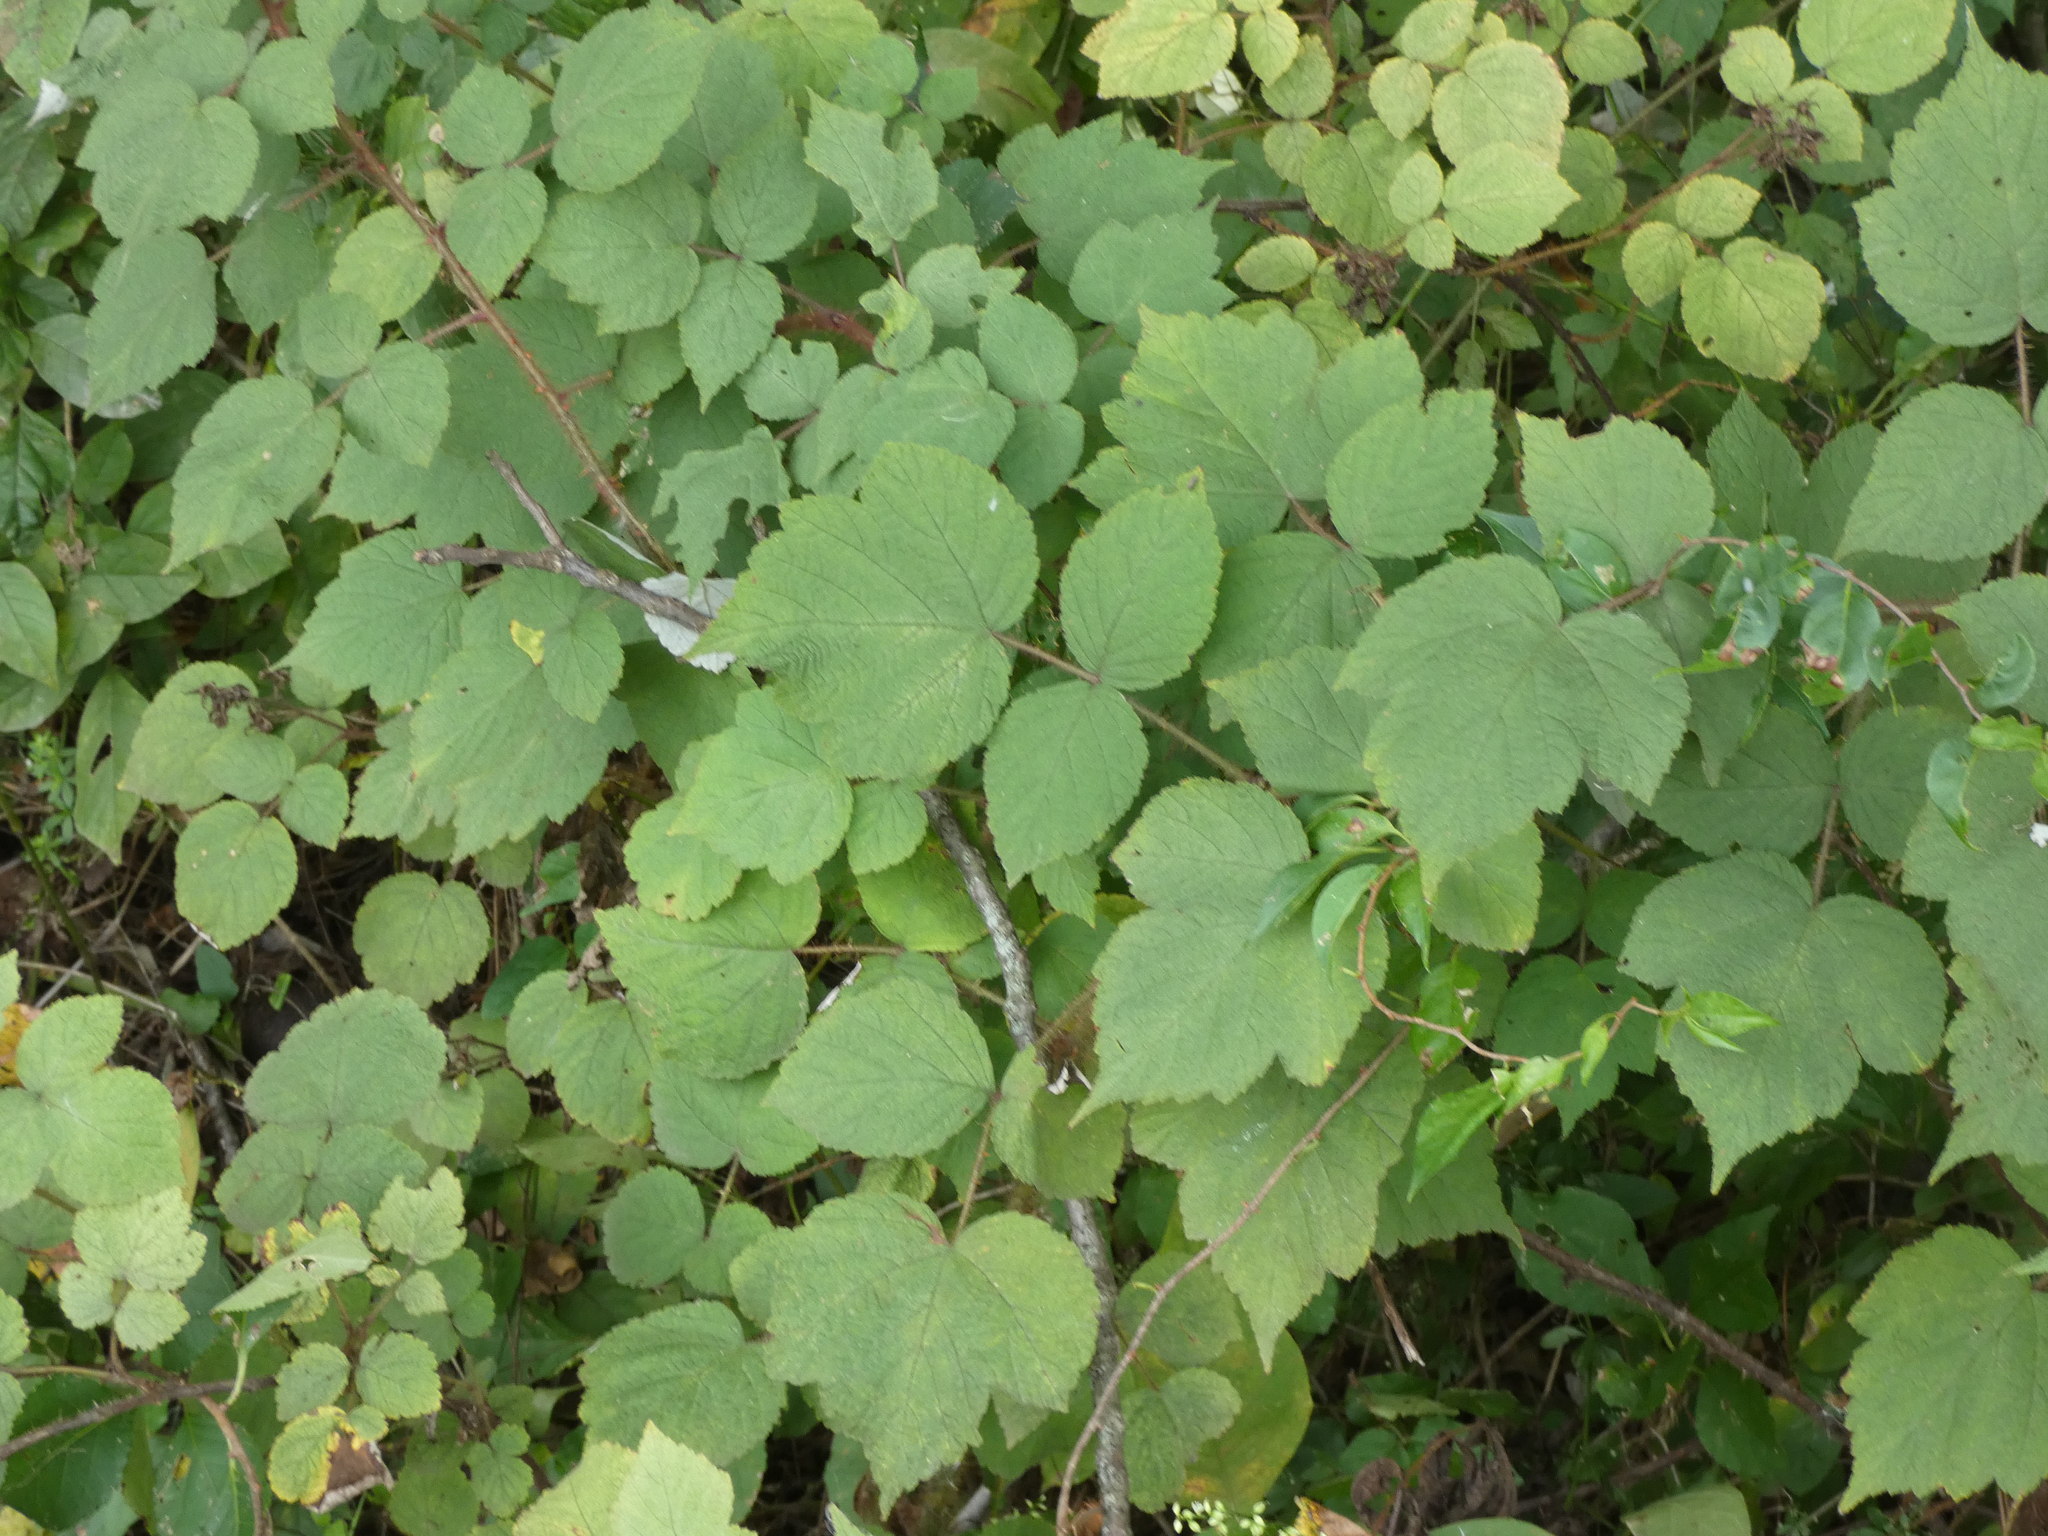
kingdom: Plantae
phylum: Tracheophyta
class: Magnoliopsida
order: Rosales
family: Rosaceae
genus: Rubus
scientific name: Rubus phoenicolasius
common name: Japanese wineberry
